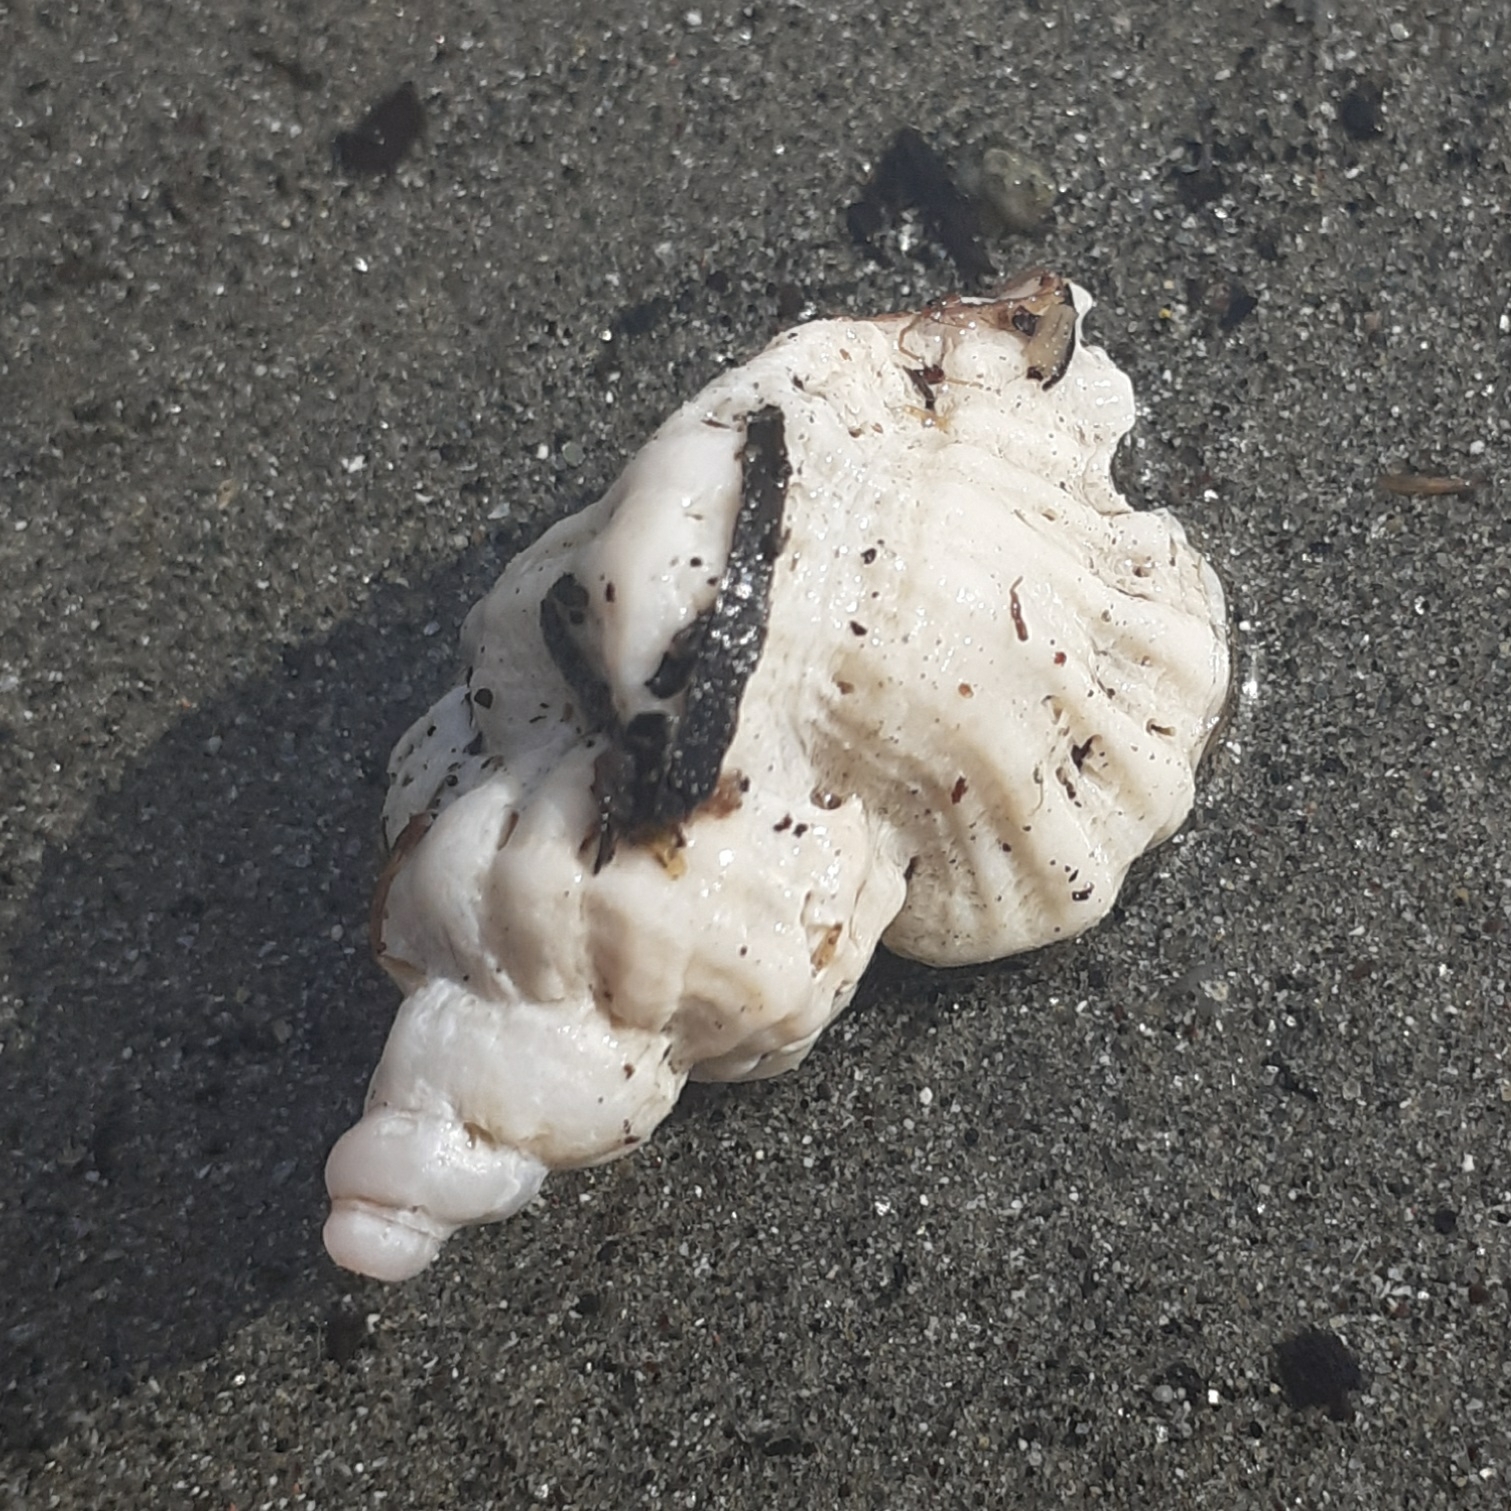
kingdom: Animalia
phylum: Mollusca
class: Gastropoda
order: Neogastropoda
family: Muricidae
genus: Ocenebra
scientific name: Ocenebra erinaceus
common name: European sting winkle
